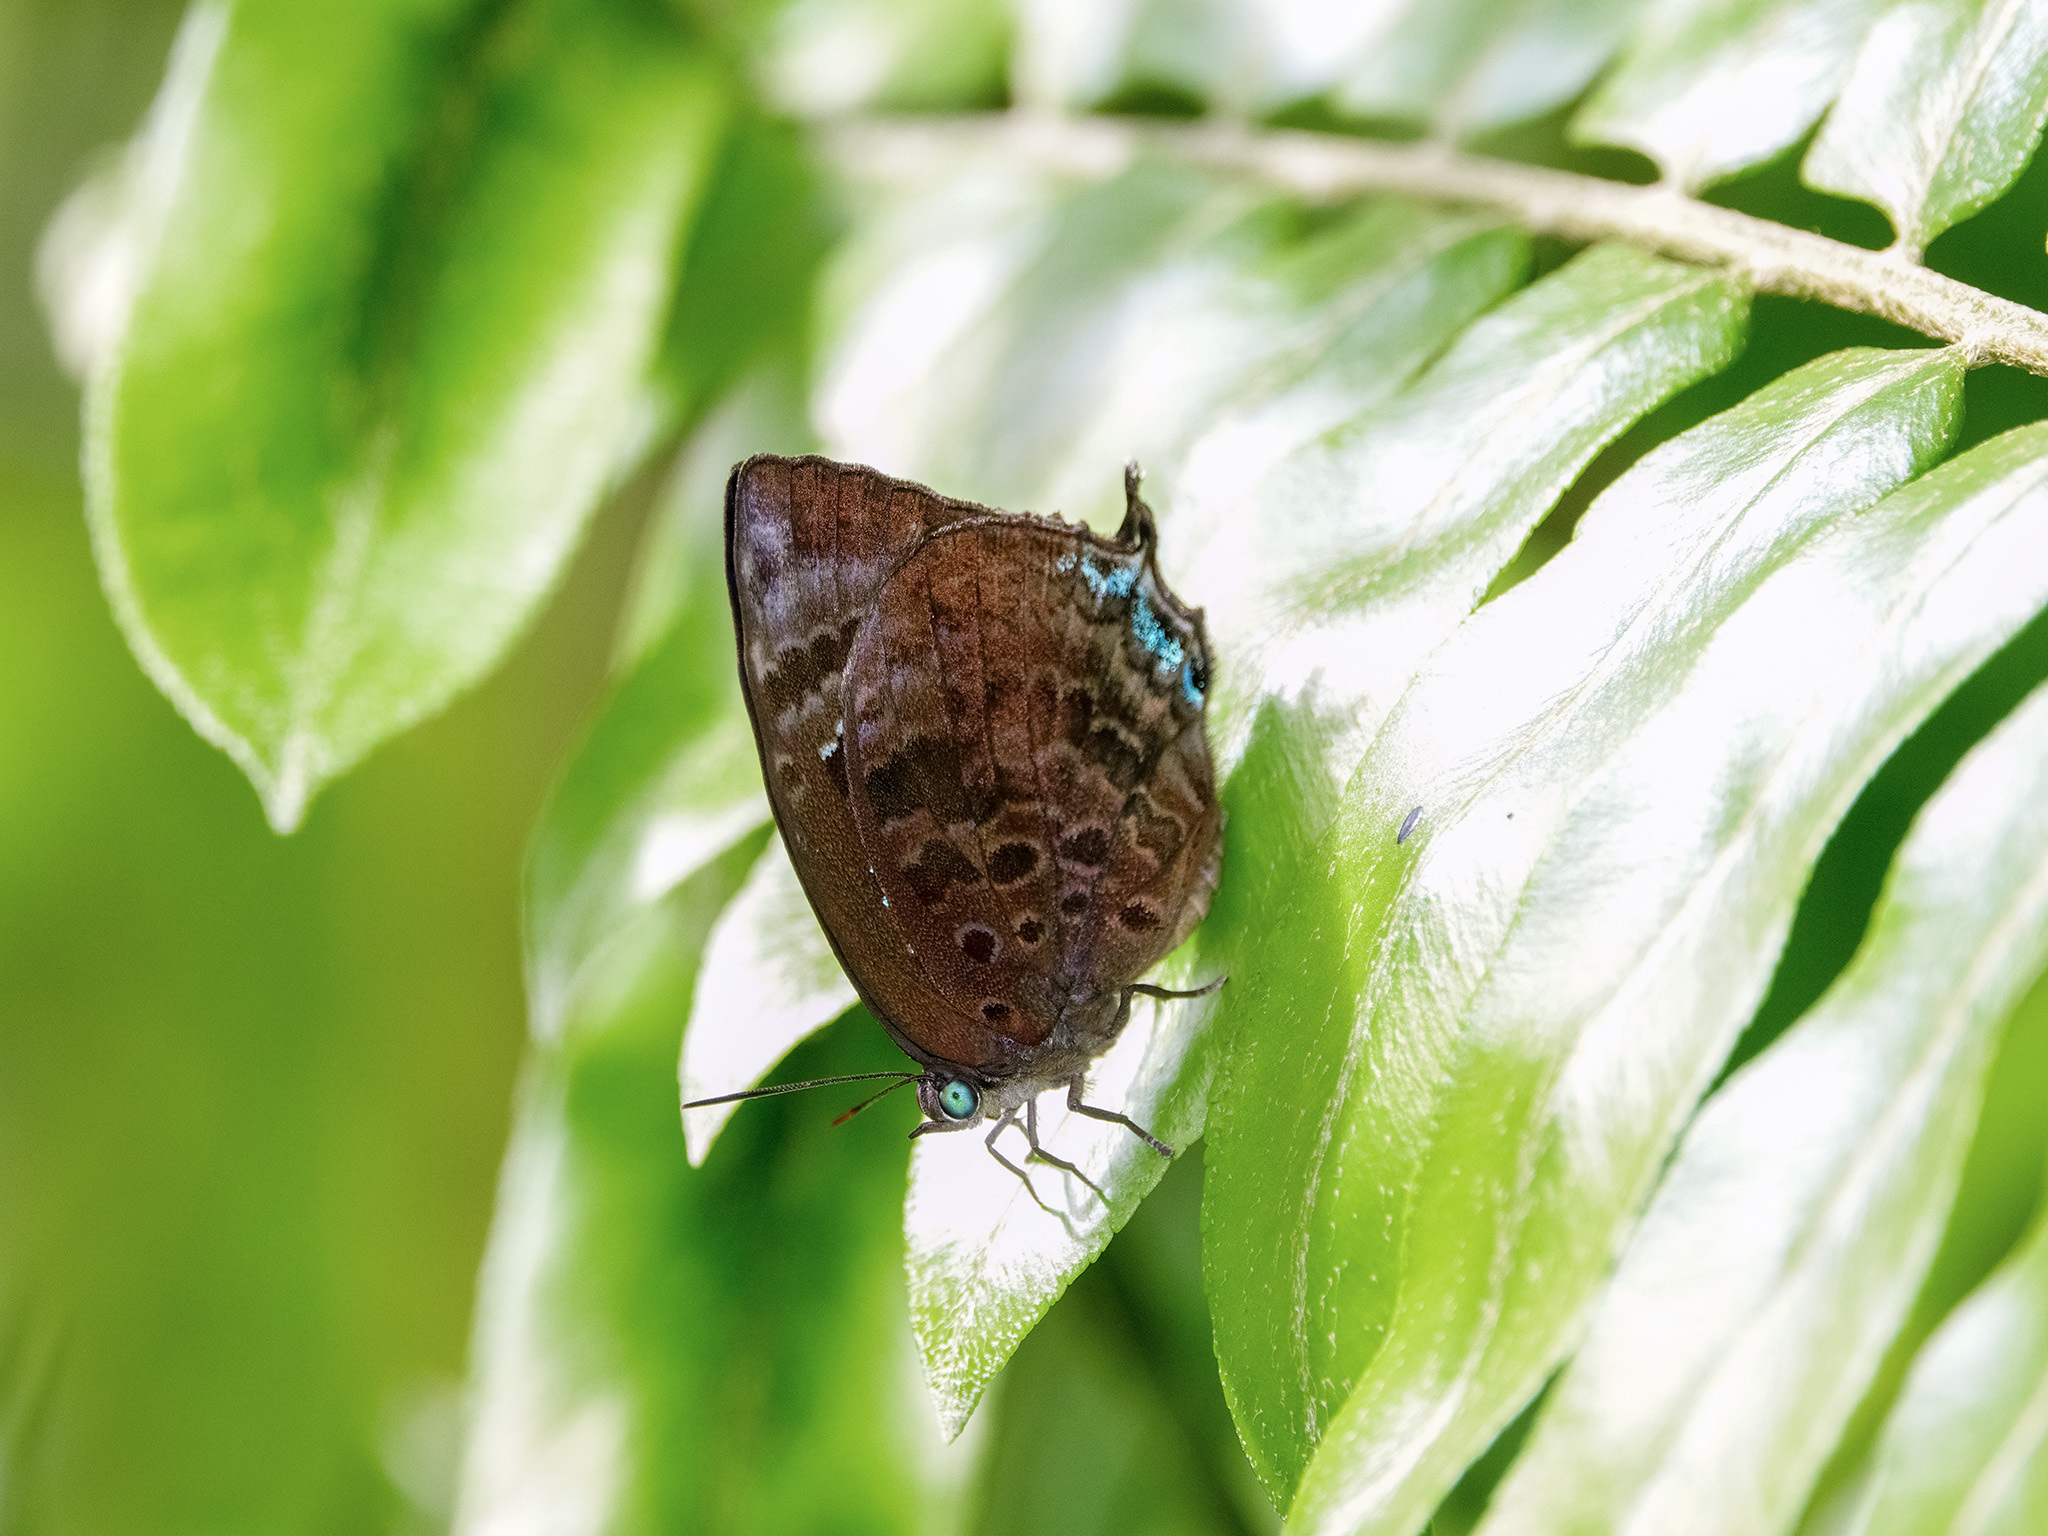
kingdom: Animalia
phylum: Arthropoda
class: Insecta
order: Lepidoptera
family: Lycaenidae
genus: Arhopala
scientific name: Arhopala centaurus
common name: Dull oak-blue
